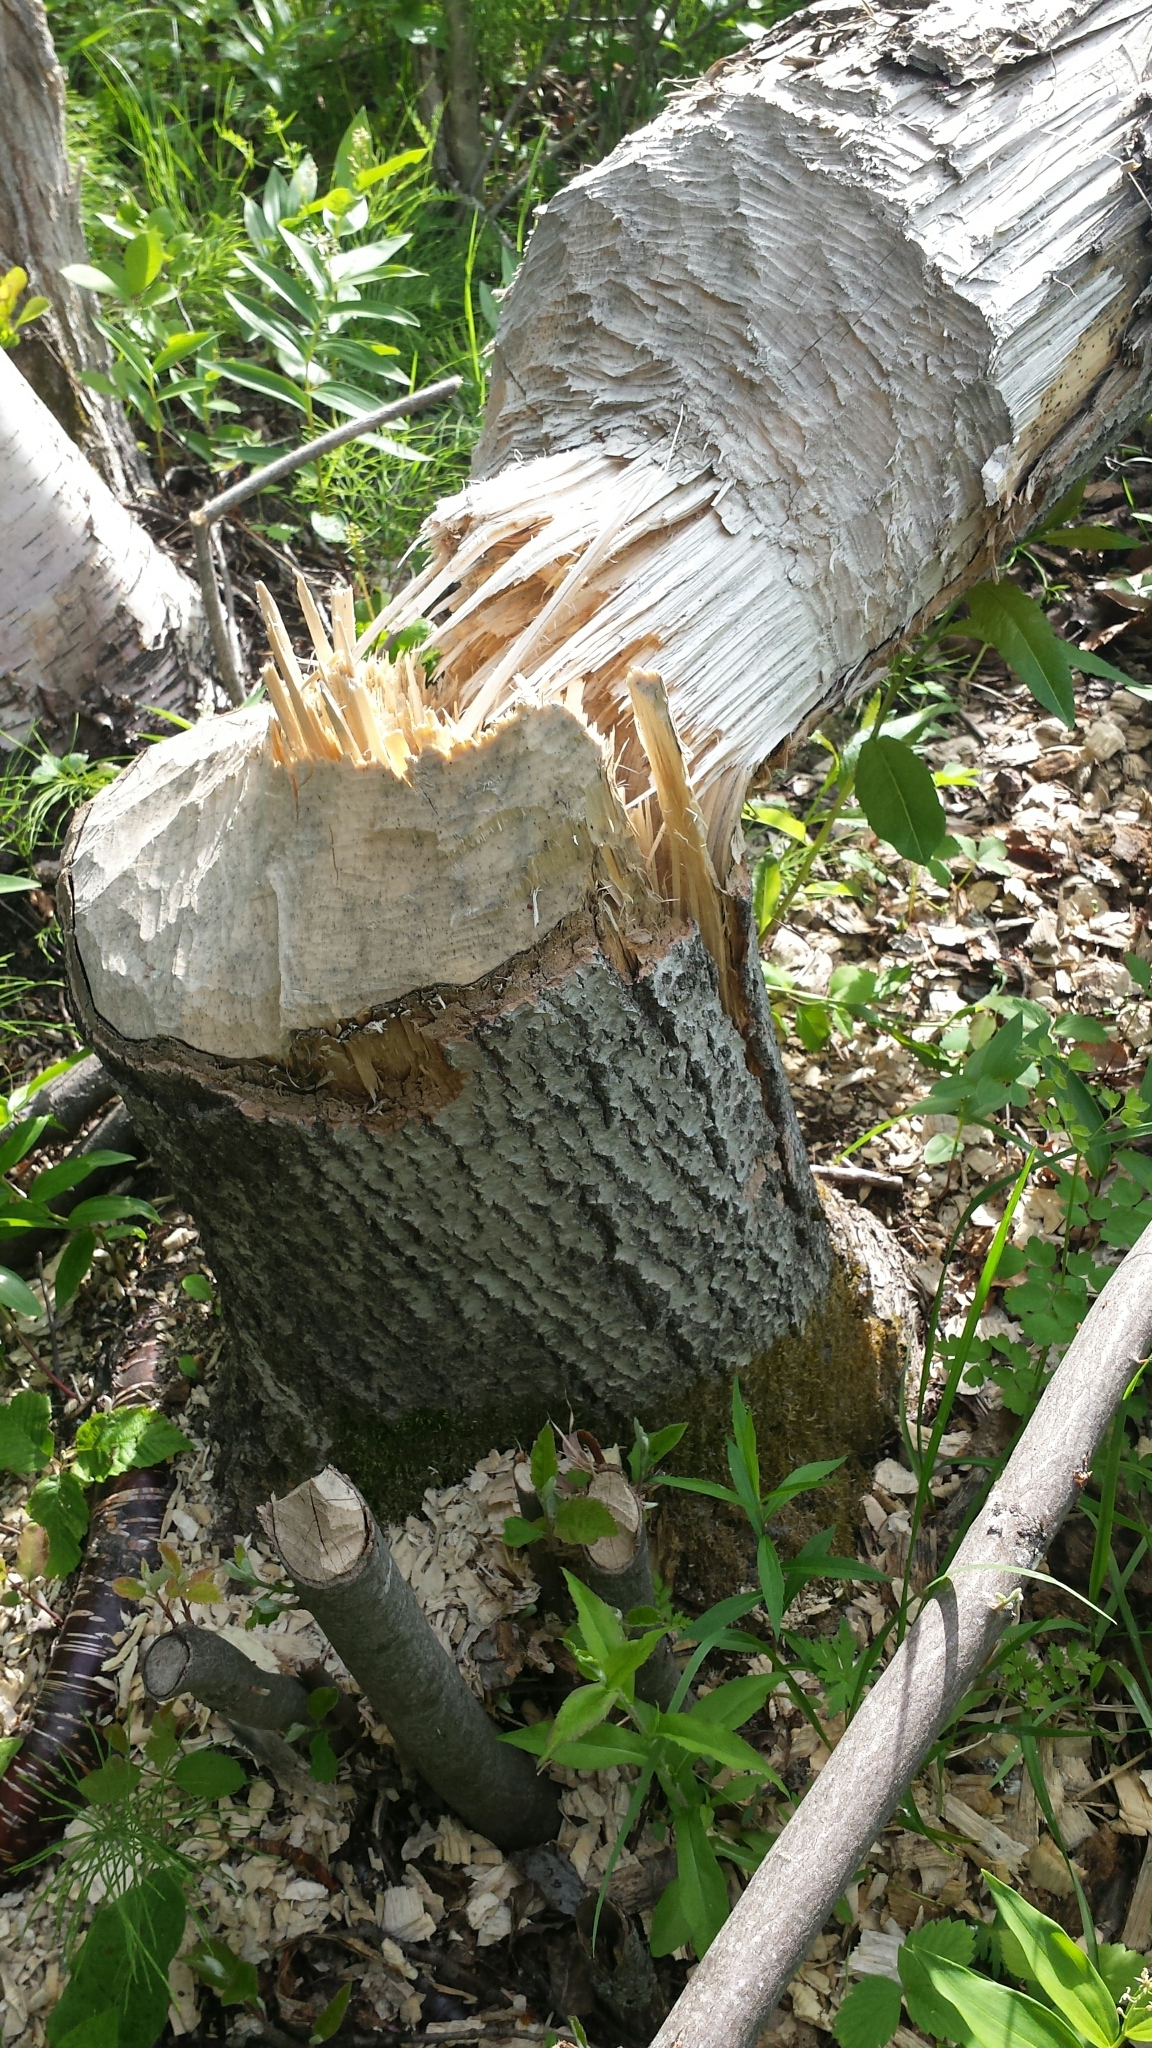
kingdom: Animalia
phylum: Chordata
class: Mammalia
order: Rodentia
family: Castoridae
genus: Castor
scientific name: Castor canadensis
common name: American beaver
